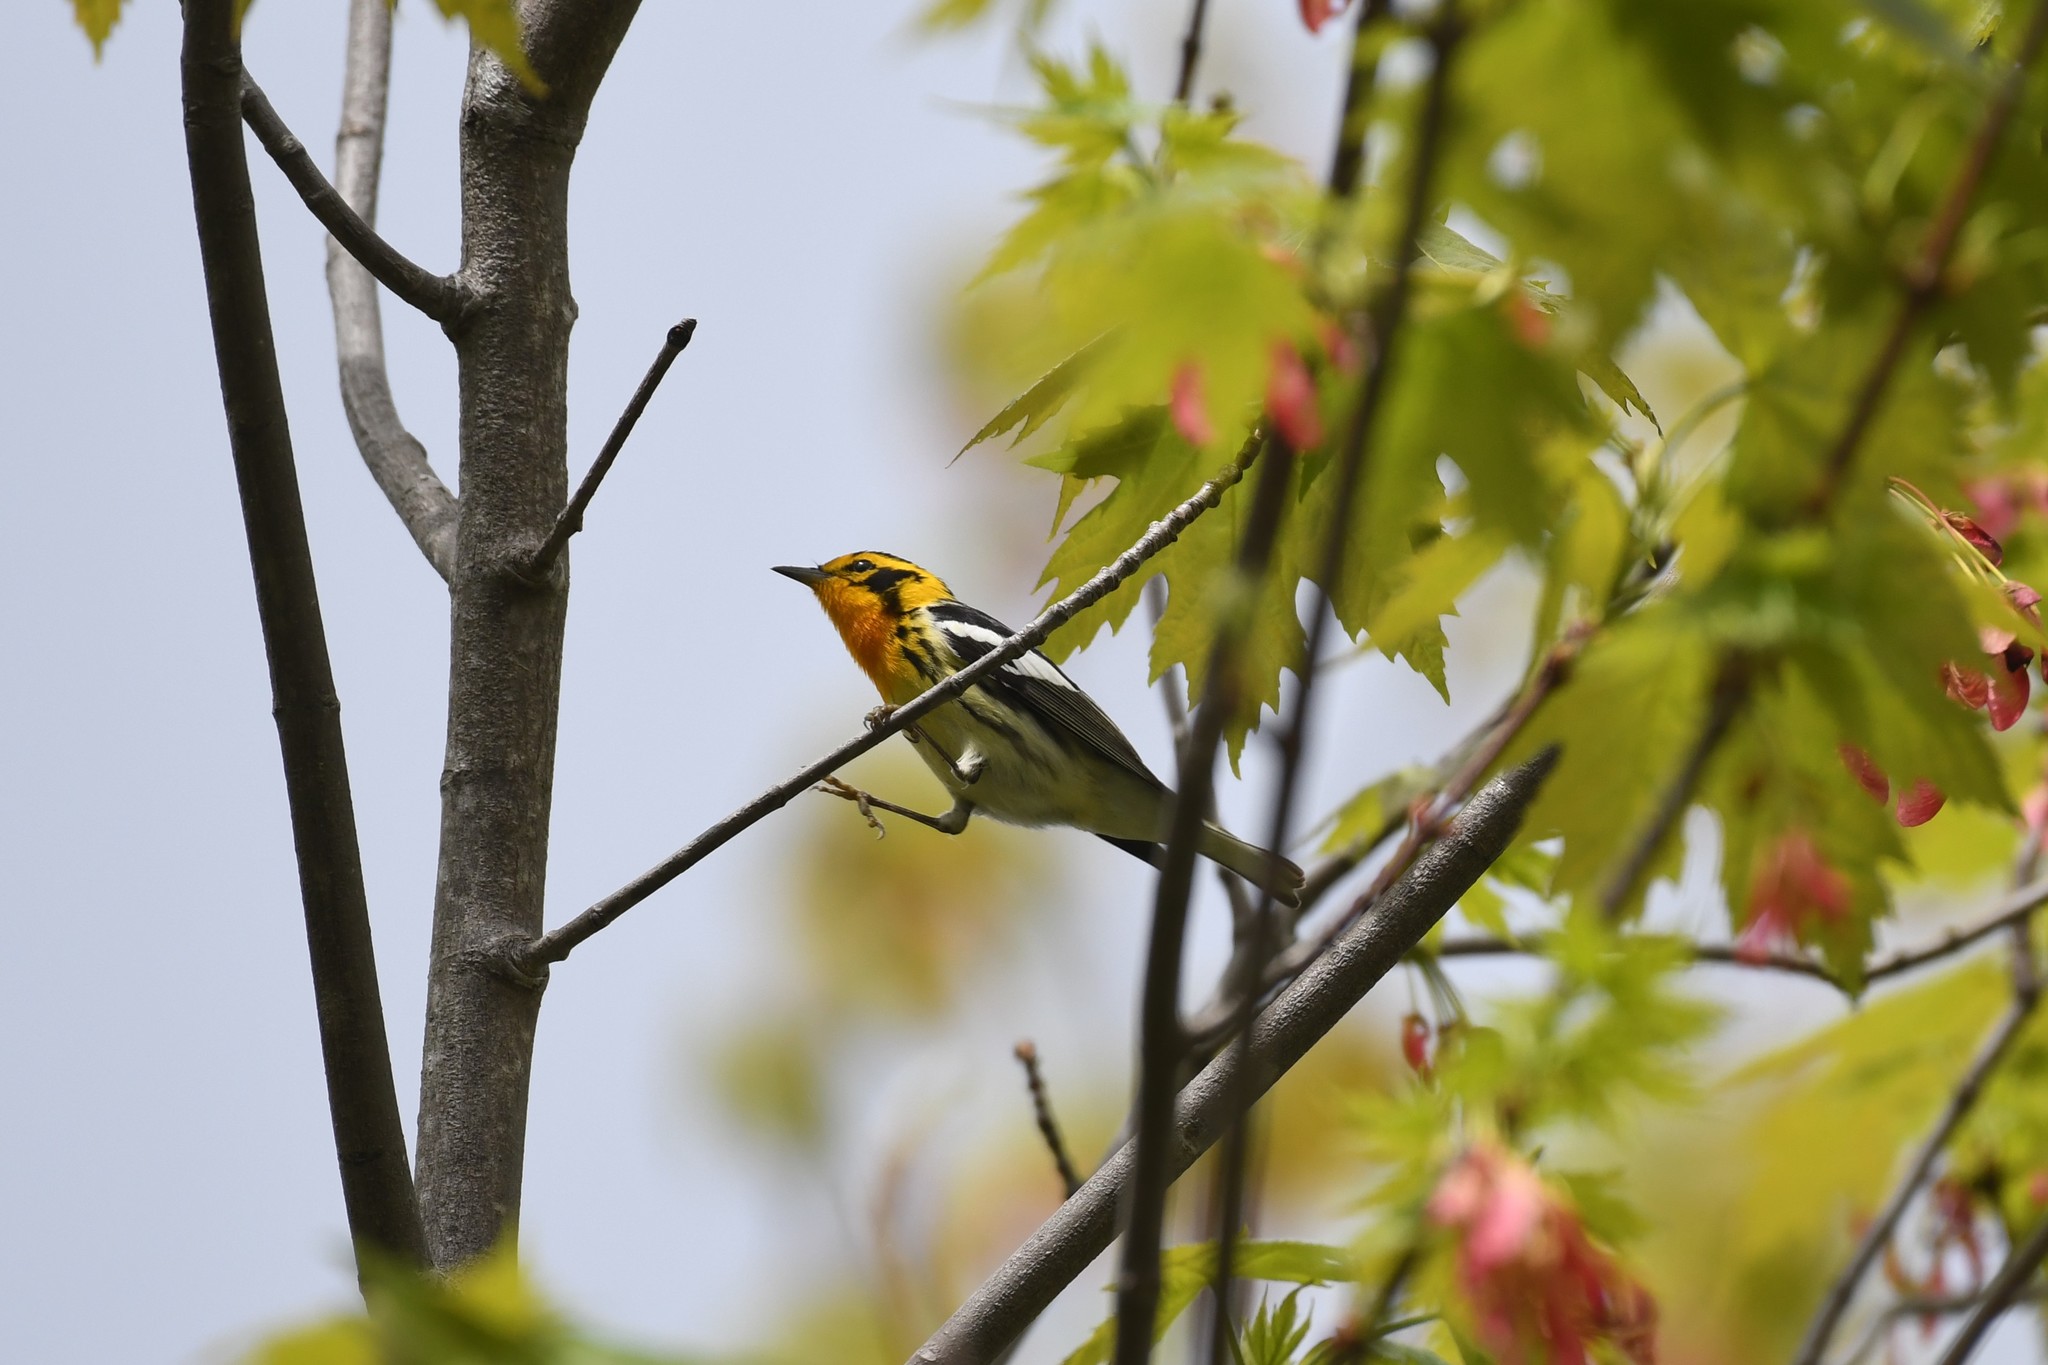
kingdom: Animalia
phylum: Chordata
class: Aves
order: Passeriformes
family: Parulidae
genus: Setophaga
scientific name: Setophaga fusca
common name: Blackburnian warbler
